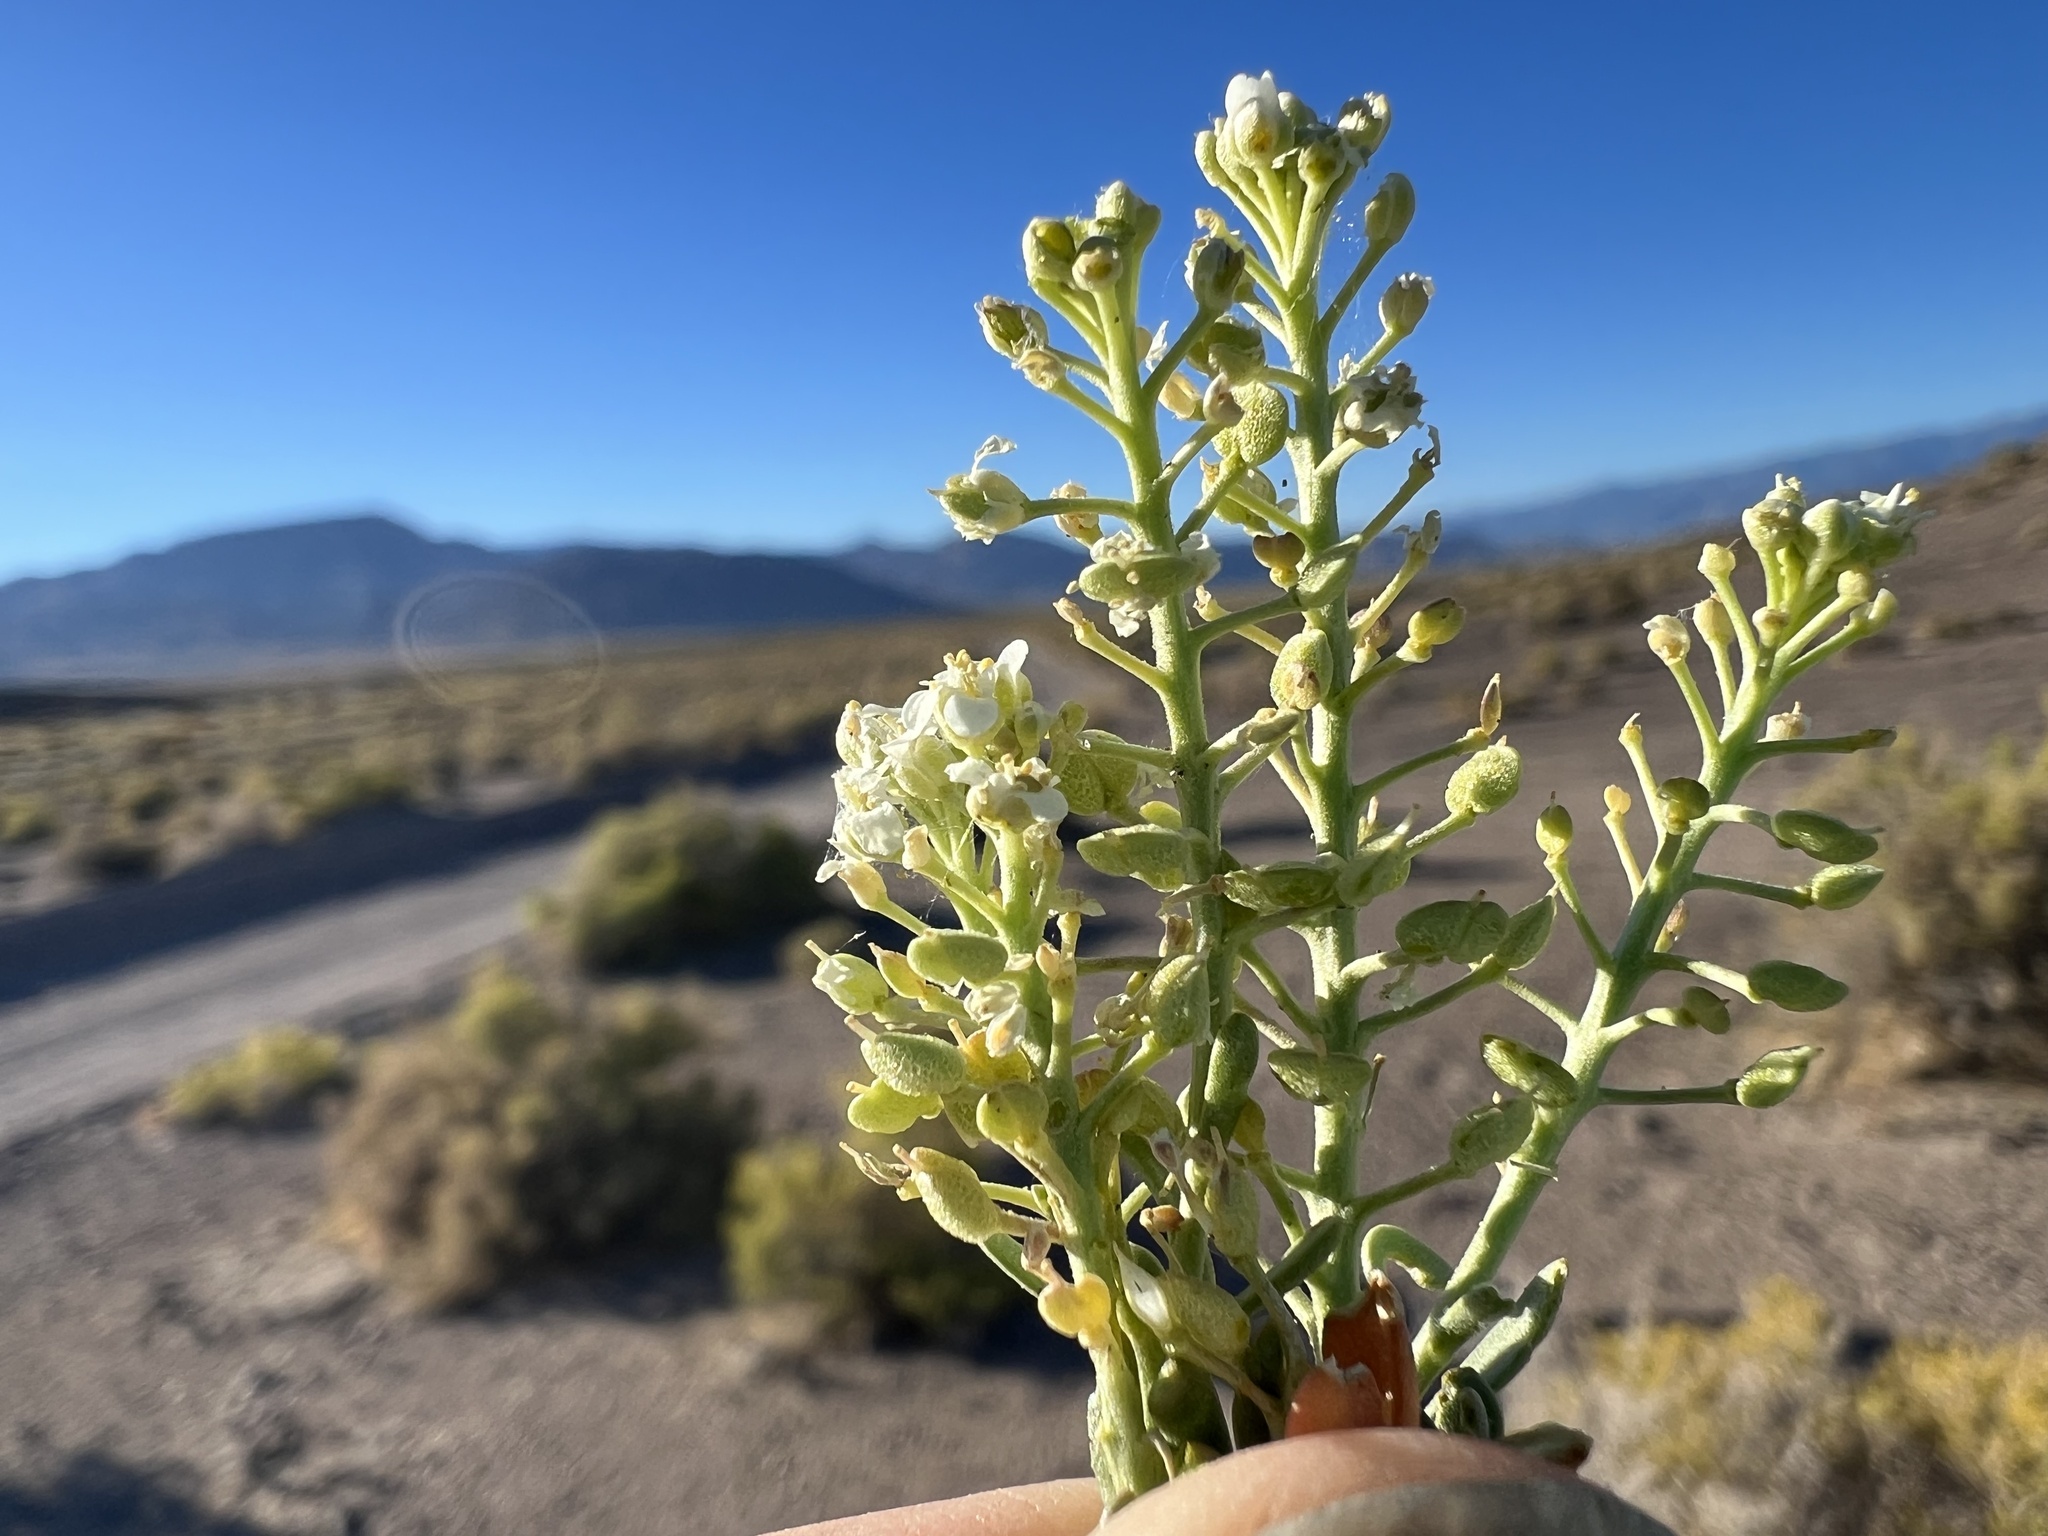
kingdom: Plantae
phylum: Tracheophyta
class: Magnoliopsida
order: Brassicales
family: Brassicaceae
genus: Lepidium
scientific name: Lepidium montanum
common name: Mountain pepperplant
